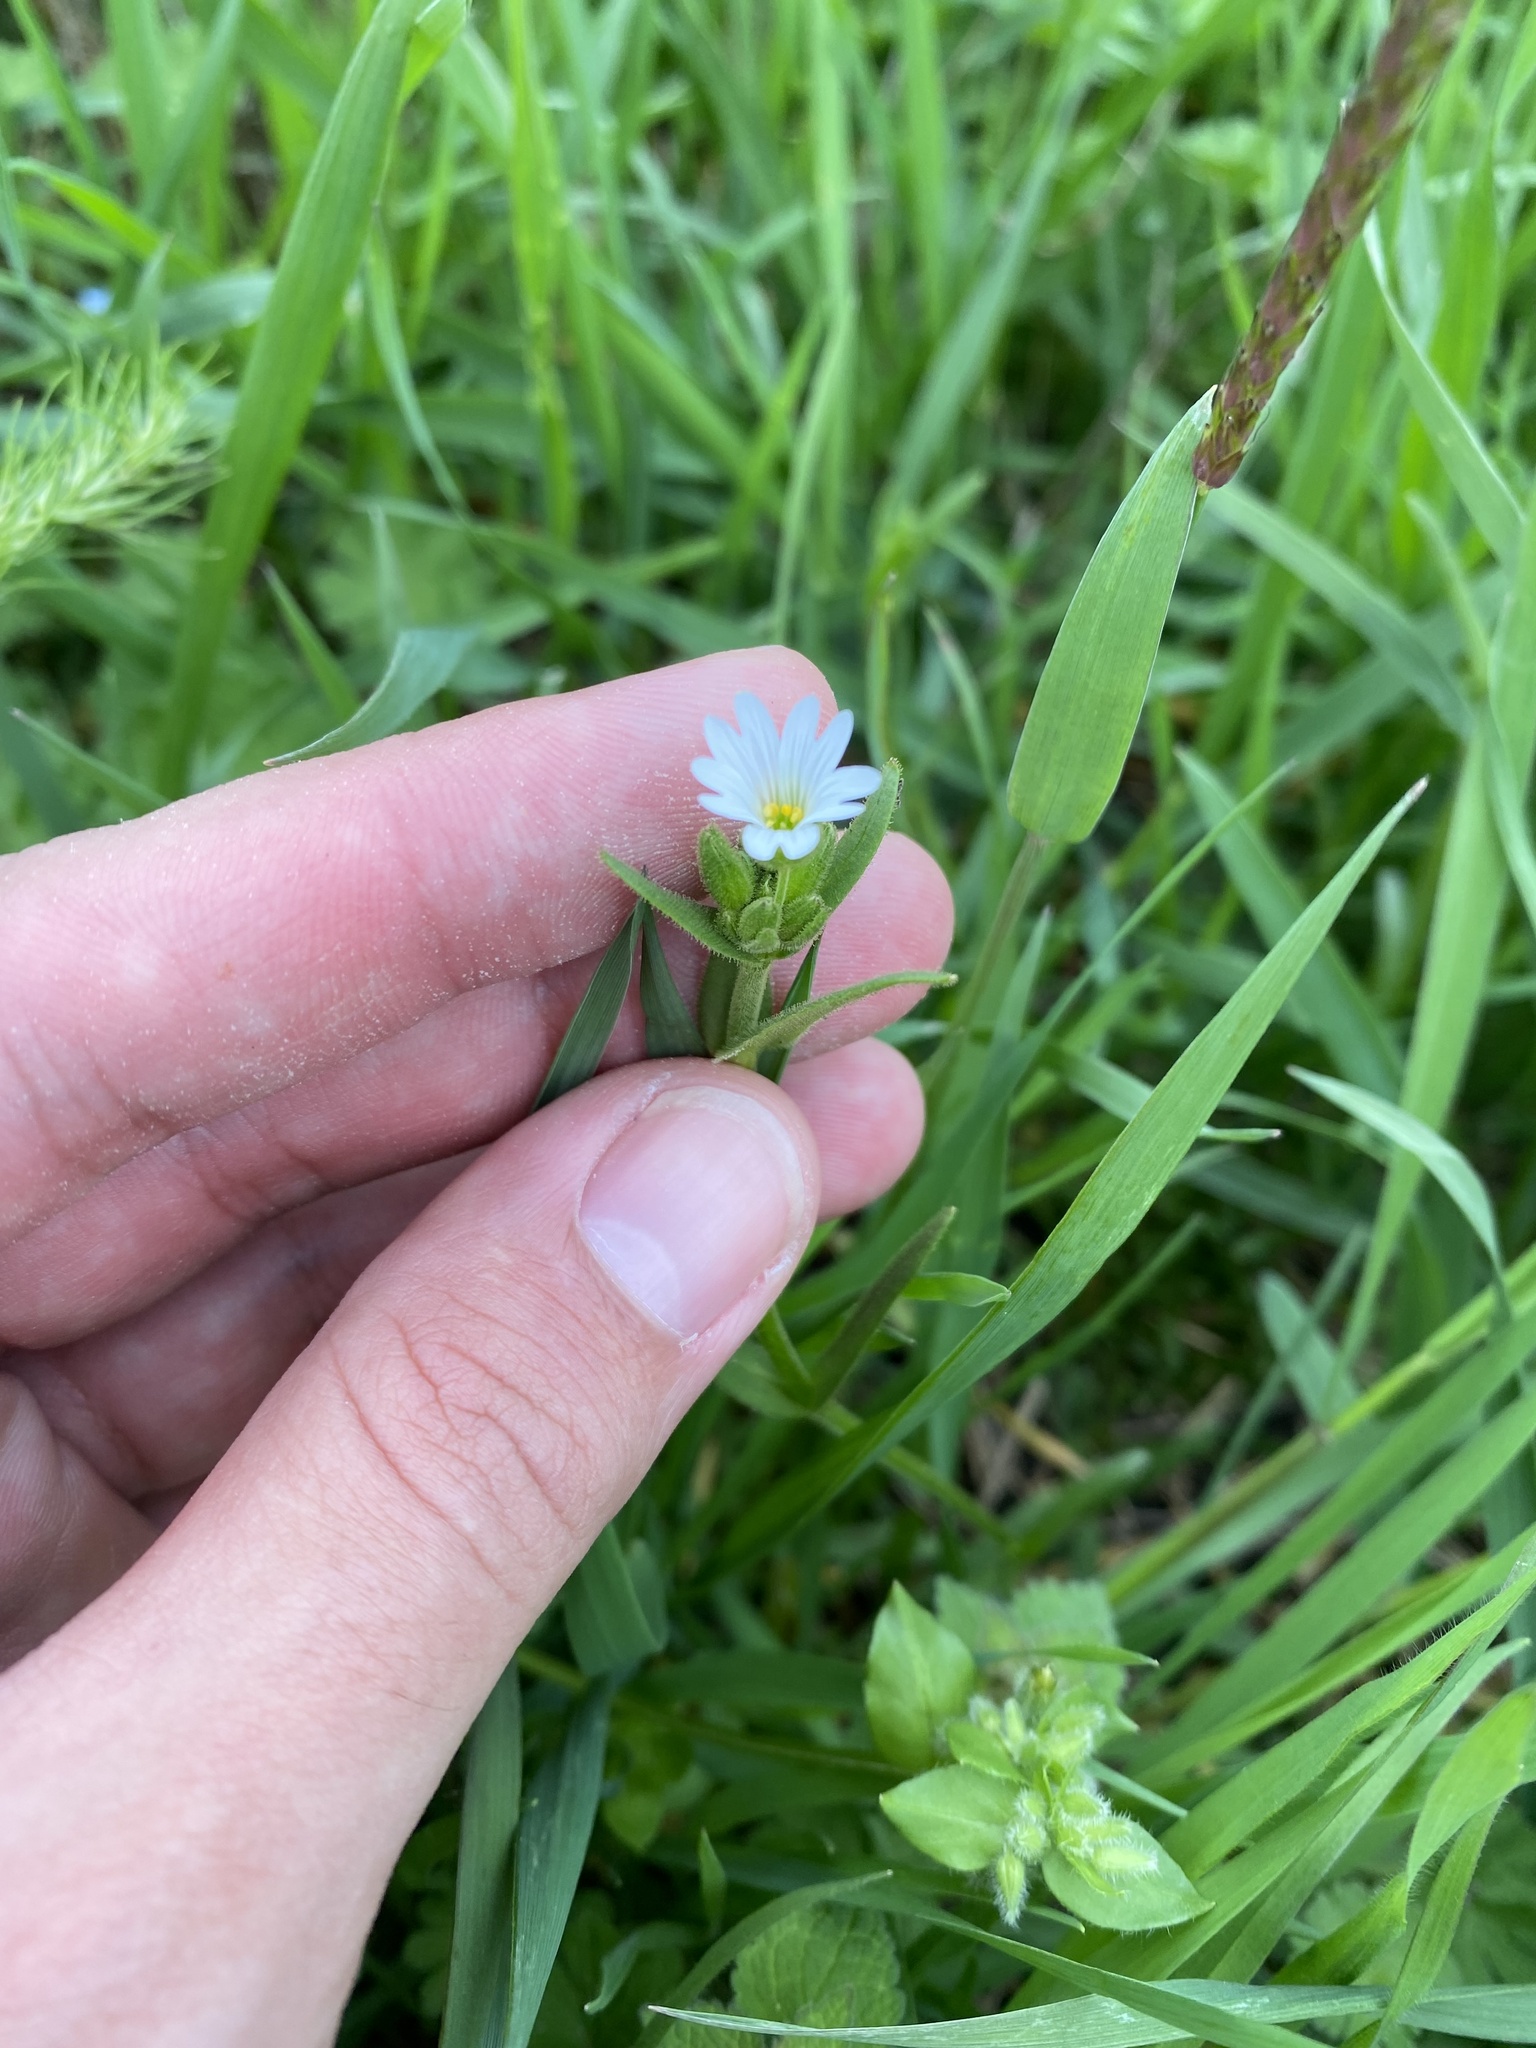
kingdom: Plantae
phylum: Tracheophyta
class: Magnoliopsida
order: Caryophyllales
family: Caryophyllaceae
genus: Dichodon
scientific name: Dichodon viscidum
